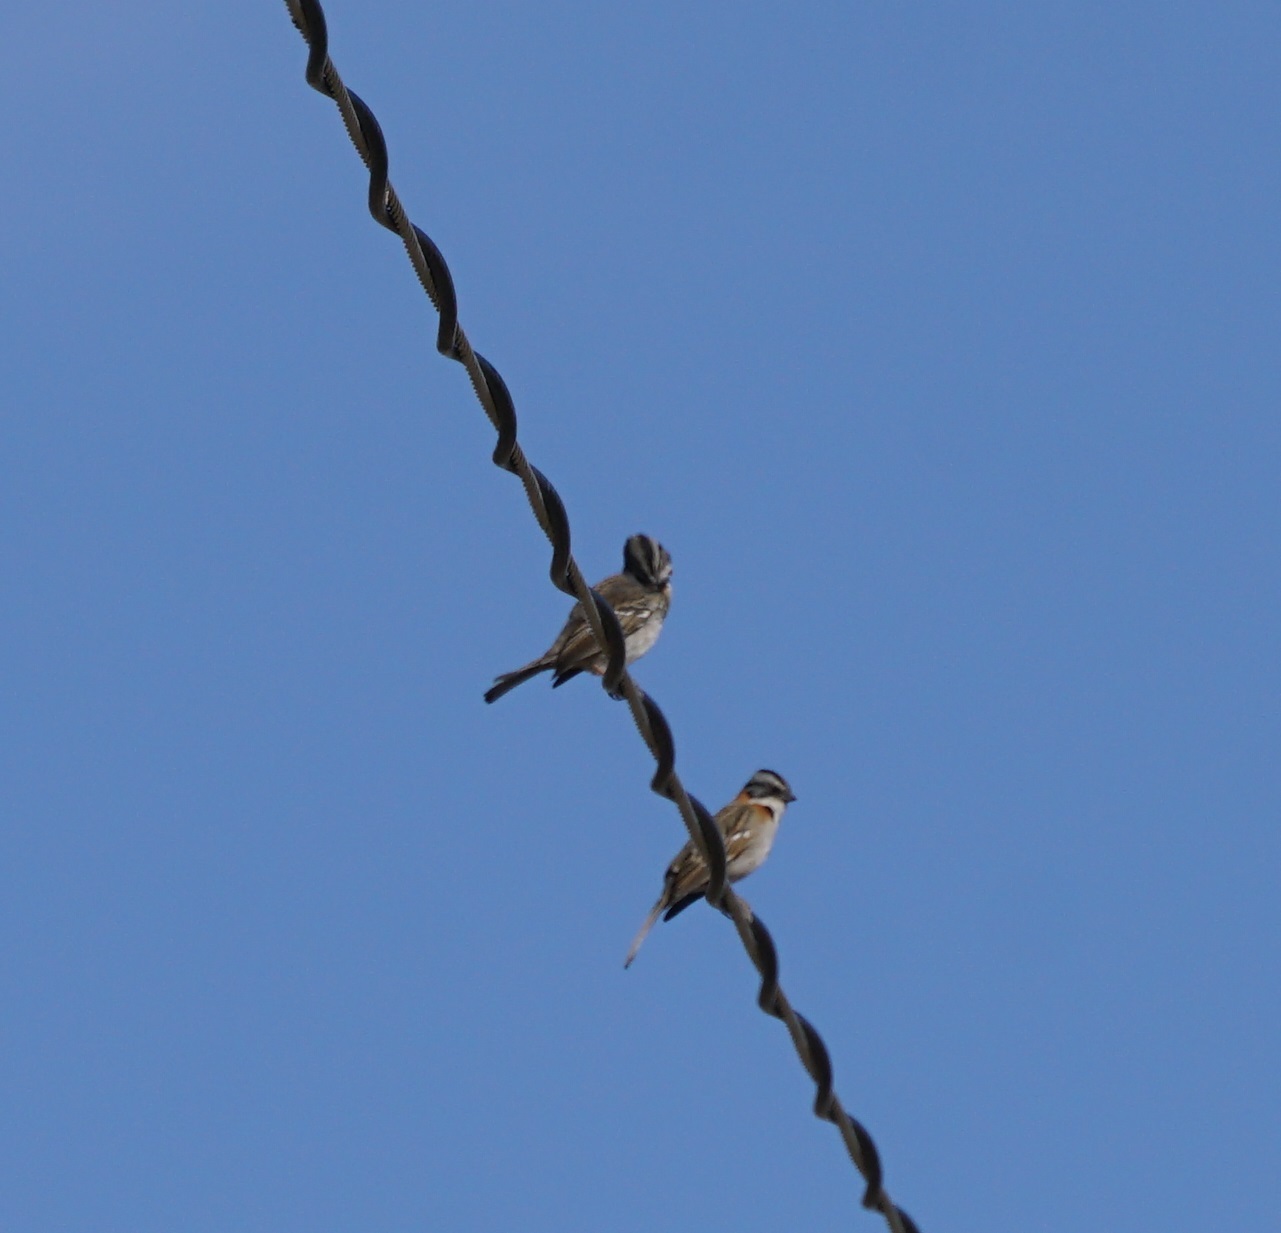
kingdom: Animalia
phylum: Chordata
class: Aves
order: Passeriformes
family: Passerellidae
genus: Zonotrichia
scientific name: Zonotrichia capensis
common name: Rufous-collared sparrow
